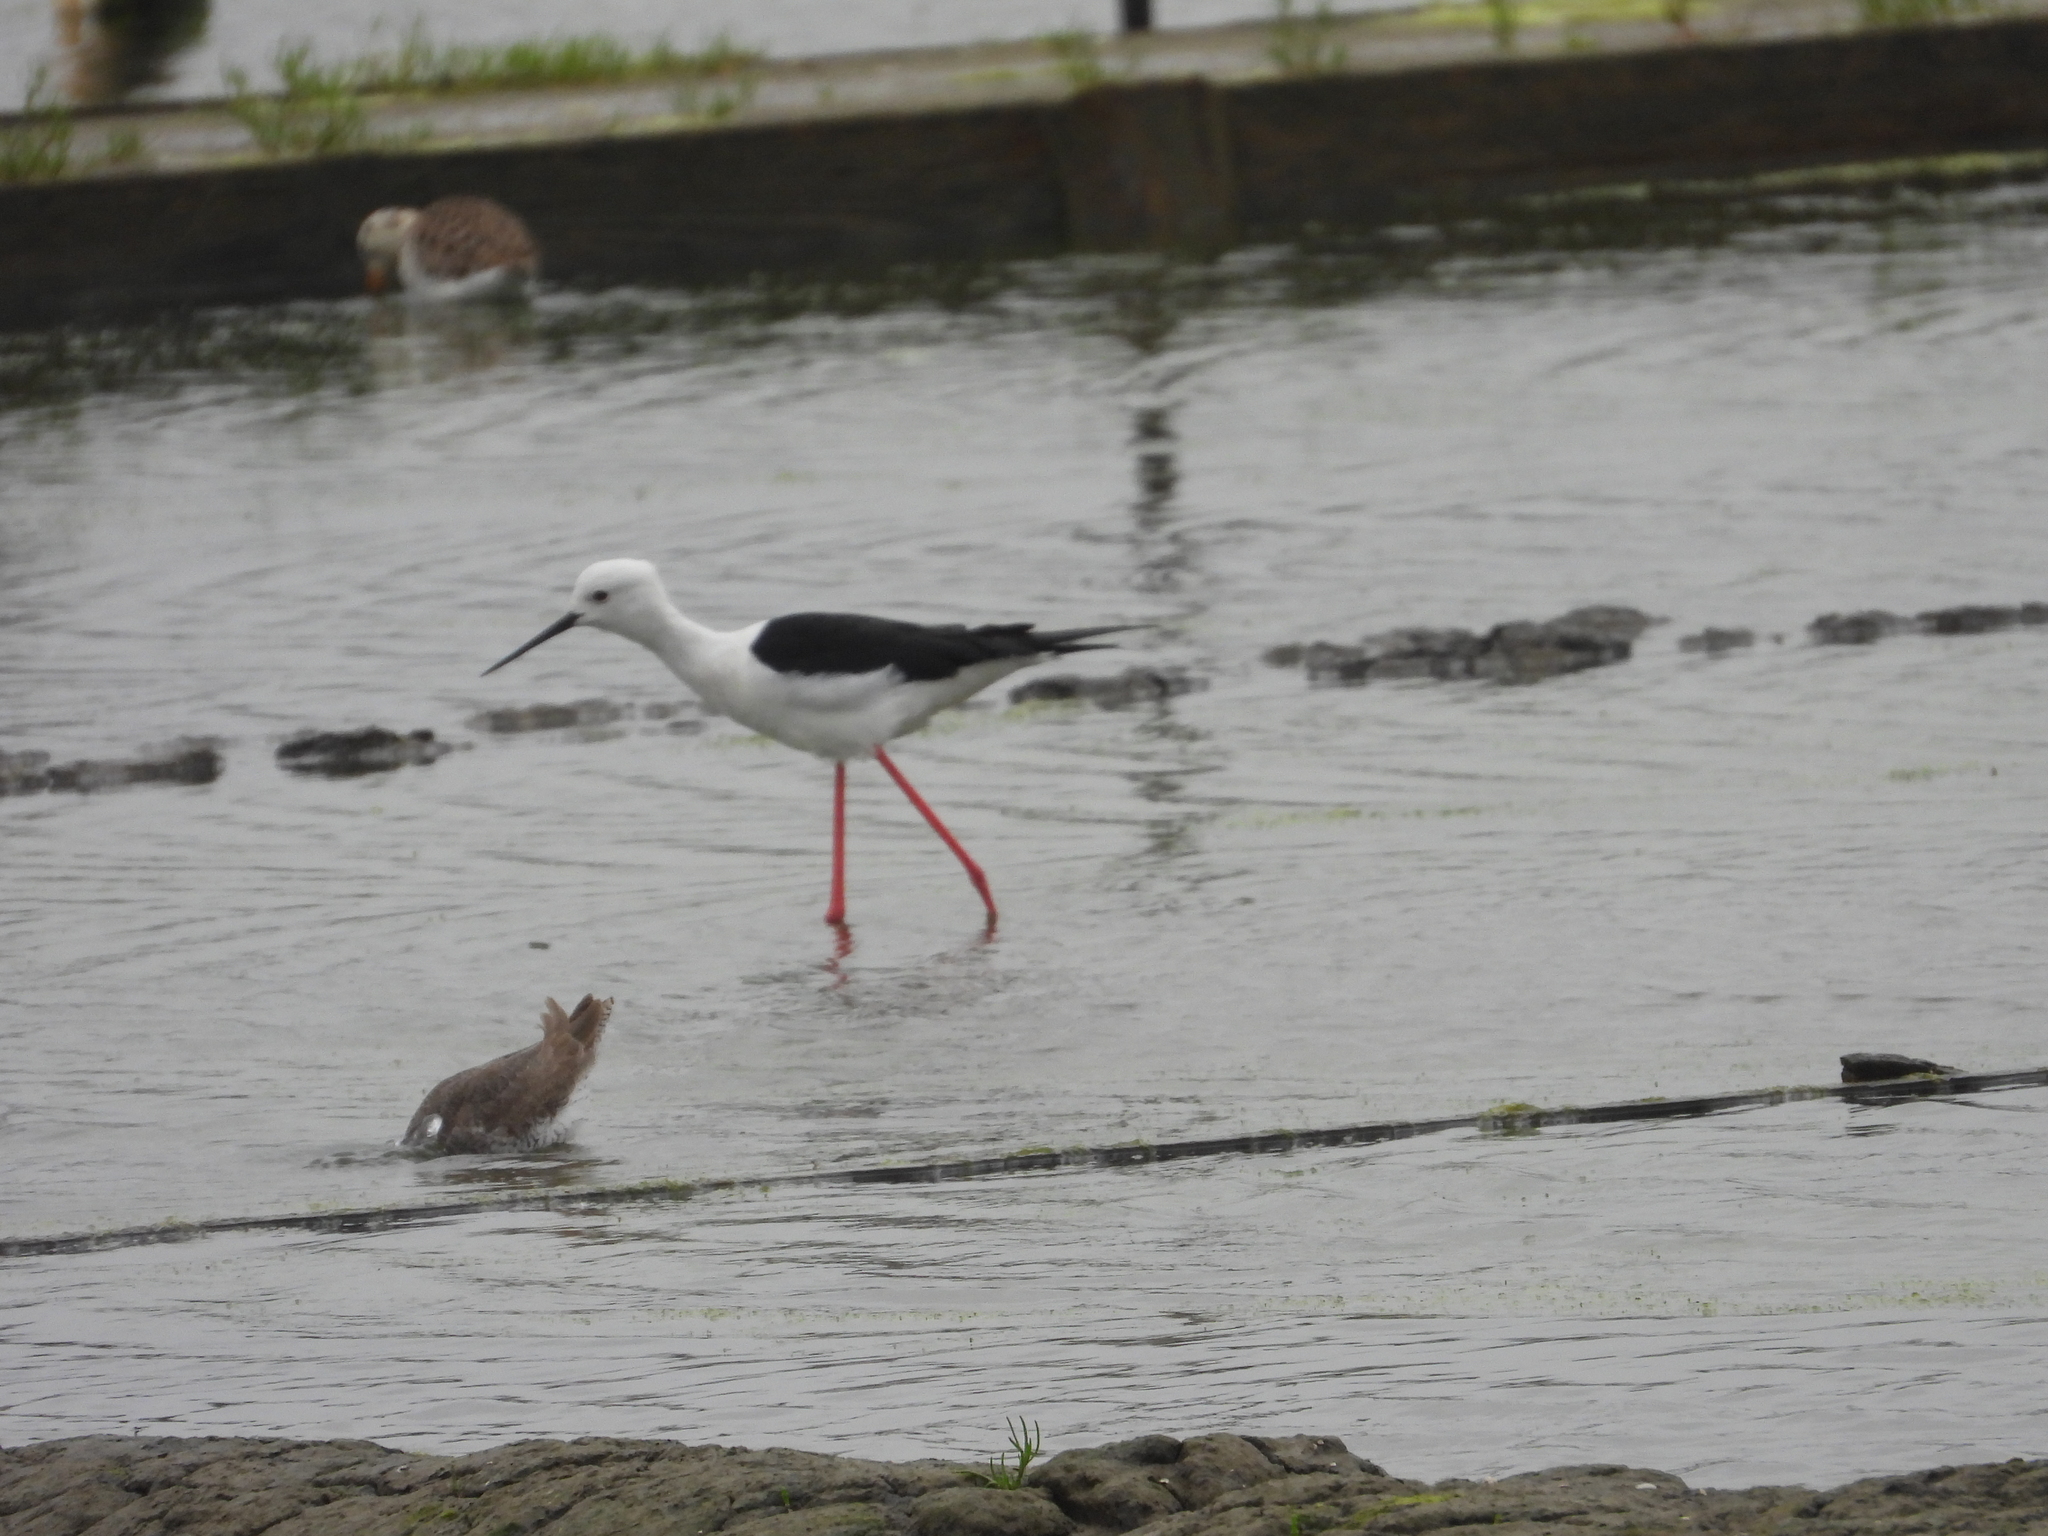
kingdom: Animalia
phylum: Chordata
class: Aves
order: Charadriiformes
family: Recurvirostridae
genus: Himantopus
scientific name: Himantopus himantopus
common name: Black-winged stilt
